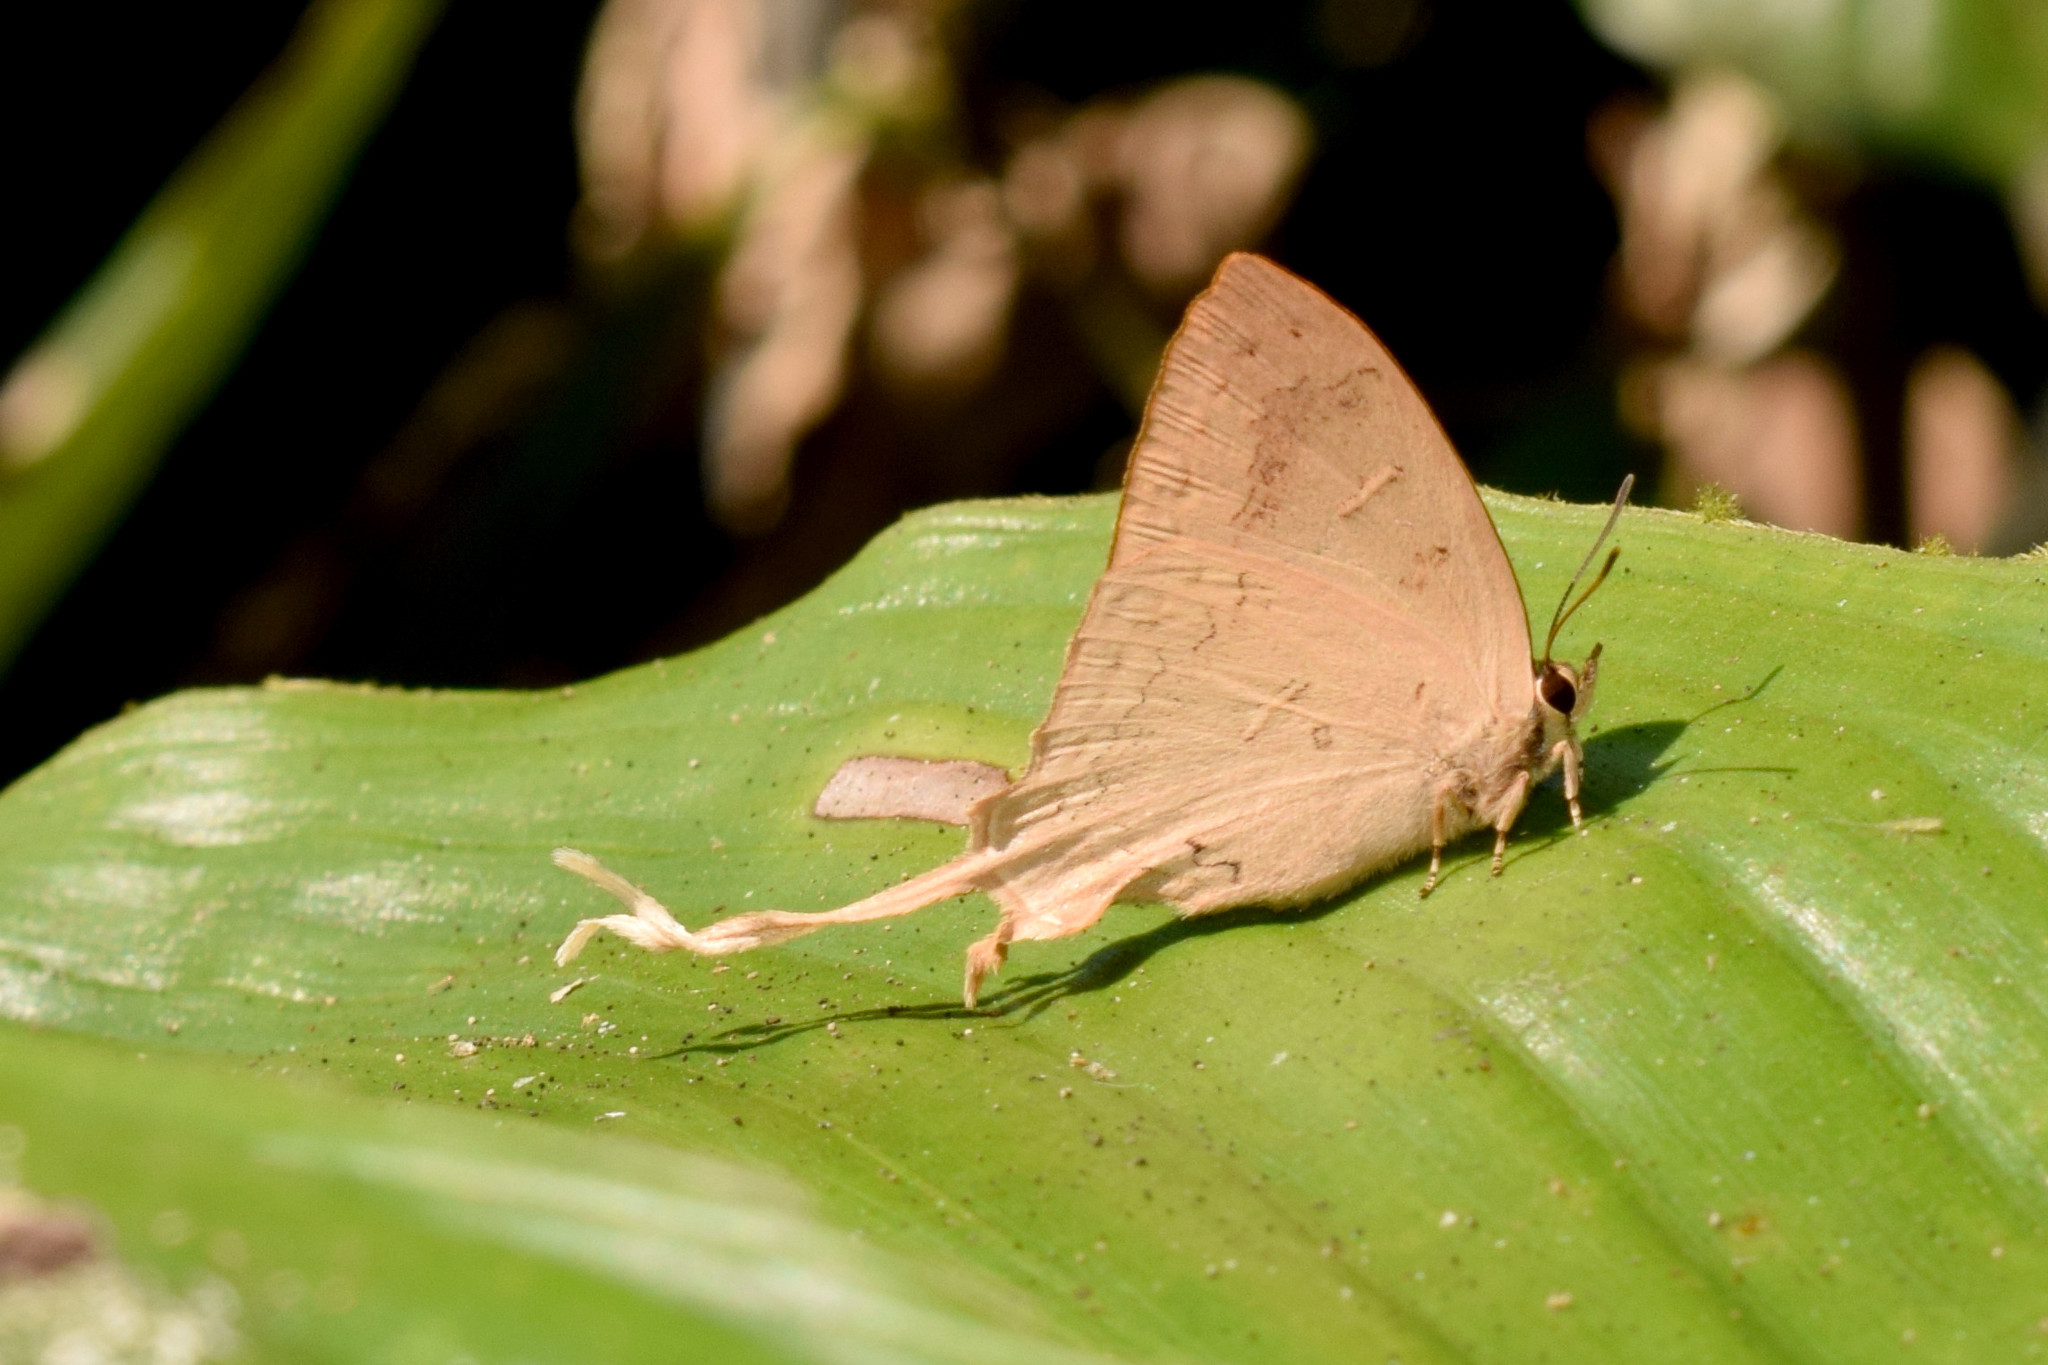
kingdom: Animalia
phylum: Arthropoda
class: Insecta
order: Lepidoptera
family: Lycaenidae
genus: Ticherra
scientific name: Ticherra acte
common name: Blue imperial
